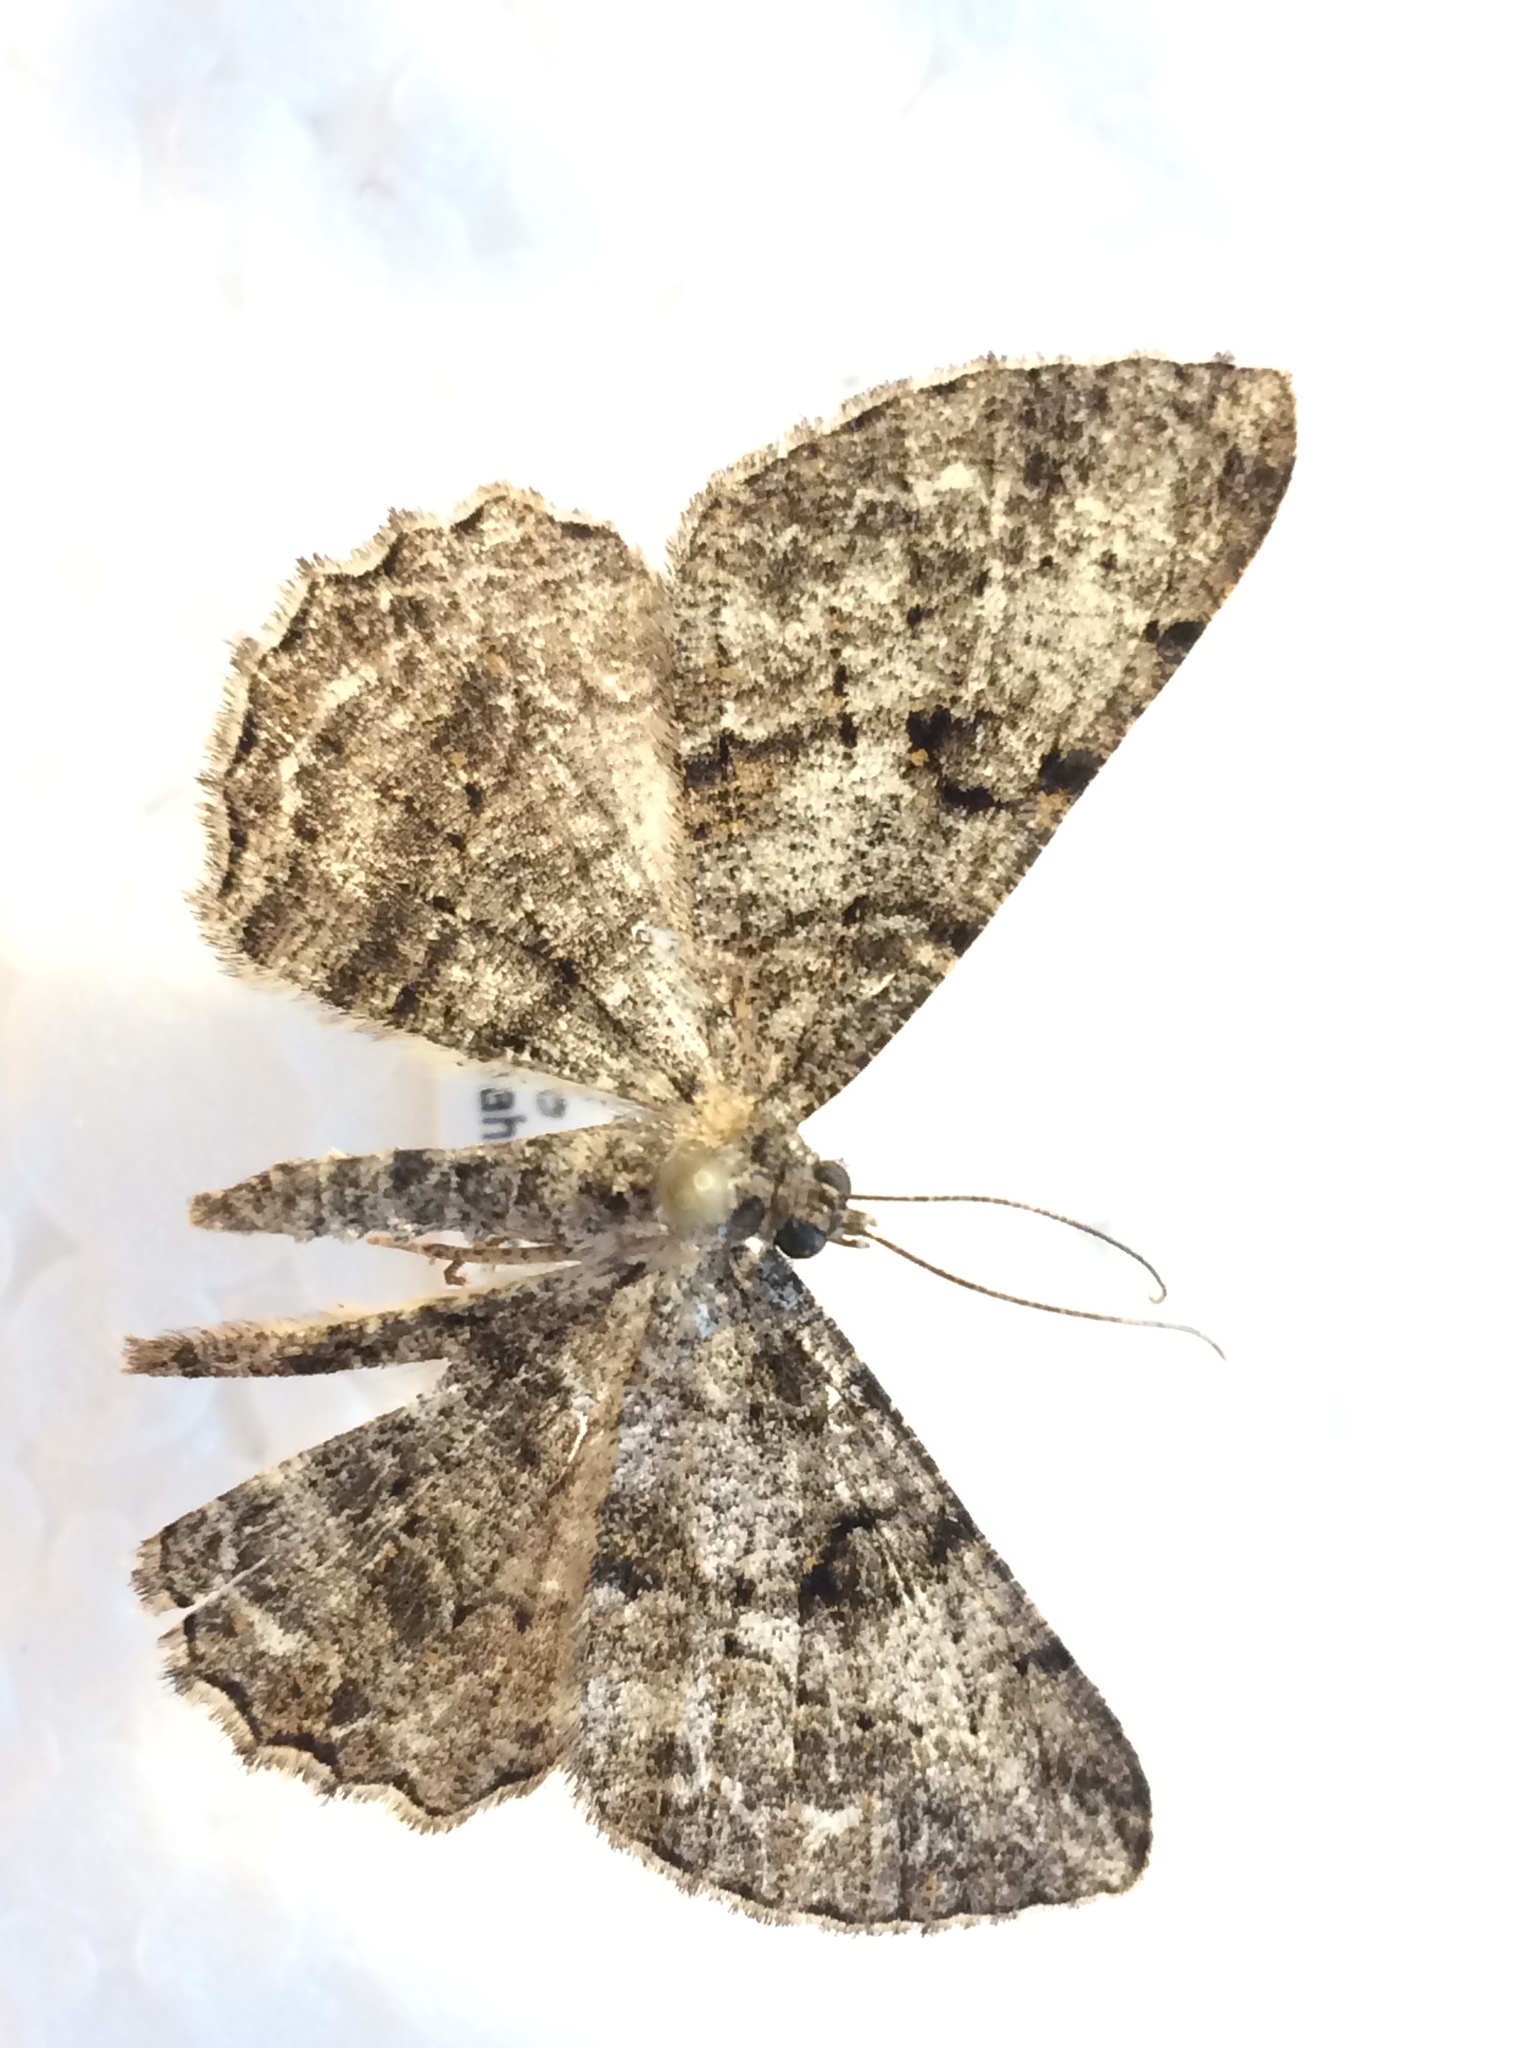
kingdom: Animalia
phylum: Arthropoda
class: Insecta
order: Lepidoptera
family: Geometridae
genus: Peribatodes
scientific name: Peribatodes rhomboidaria
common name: Willow beauty
